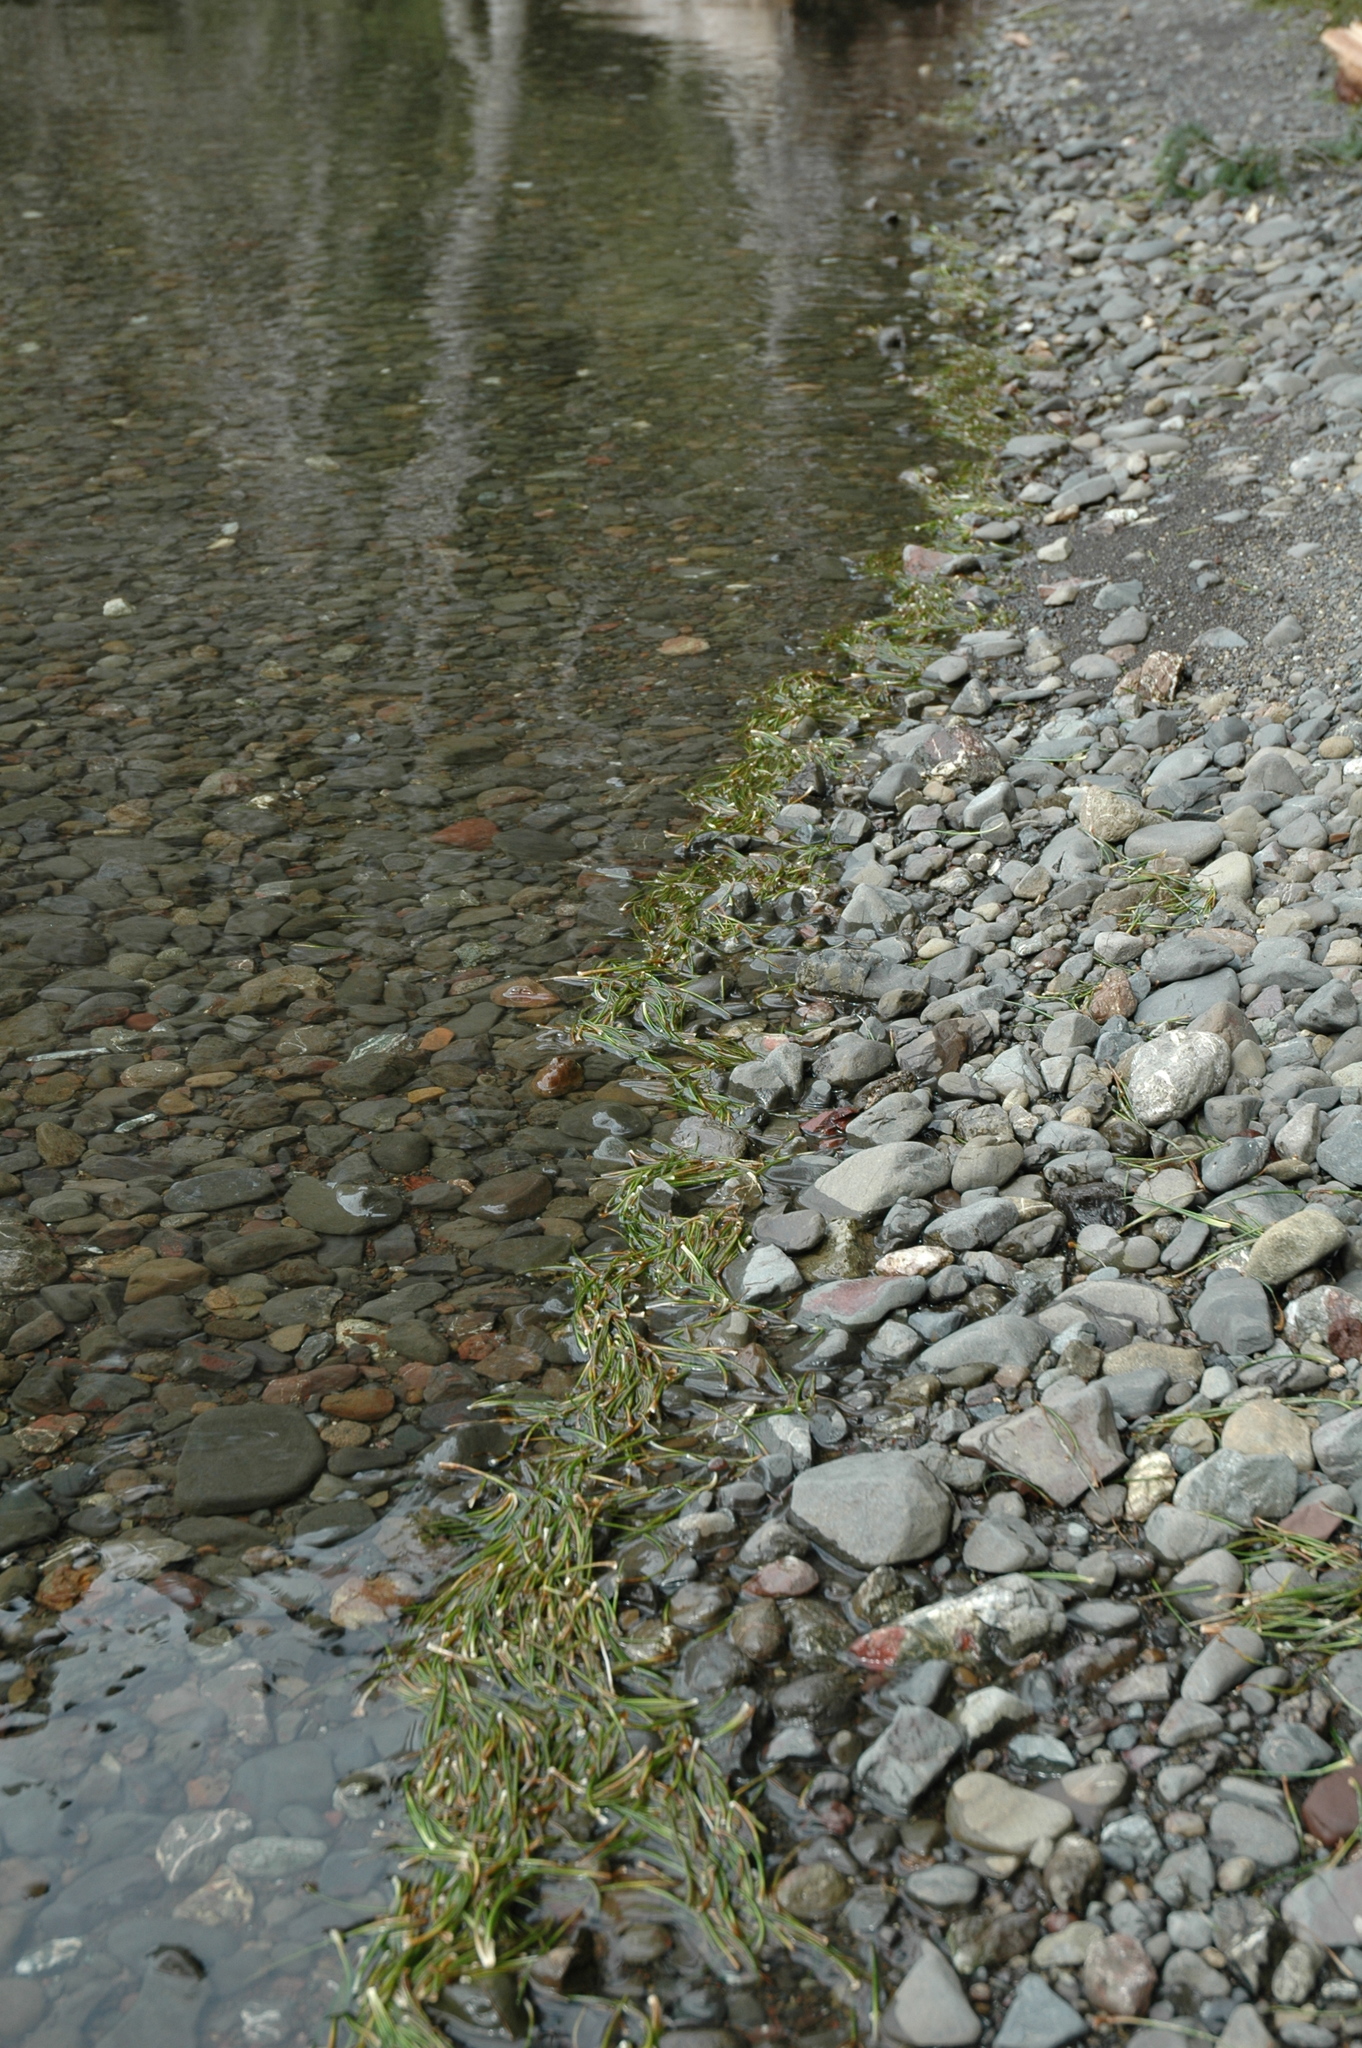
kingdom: Plantae
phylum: Tracheophyta
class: Lycopodiopsida
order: Isoetales
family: Isoetaceae
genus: Isoetes
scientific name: Isoetes occidentalis
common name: Western quillwort
